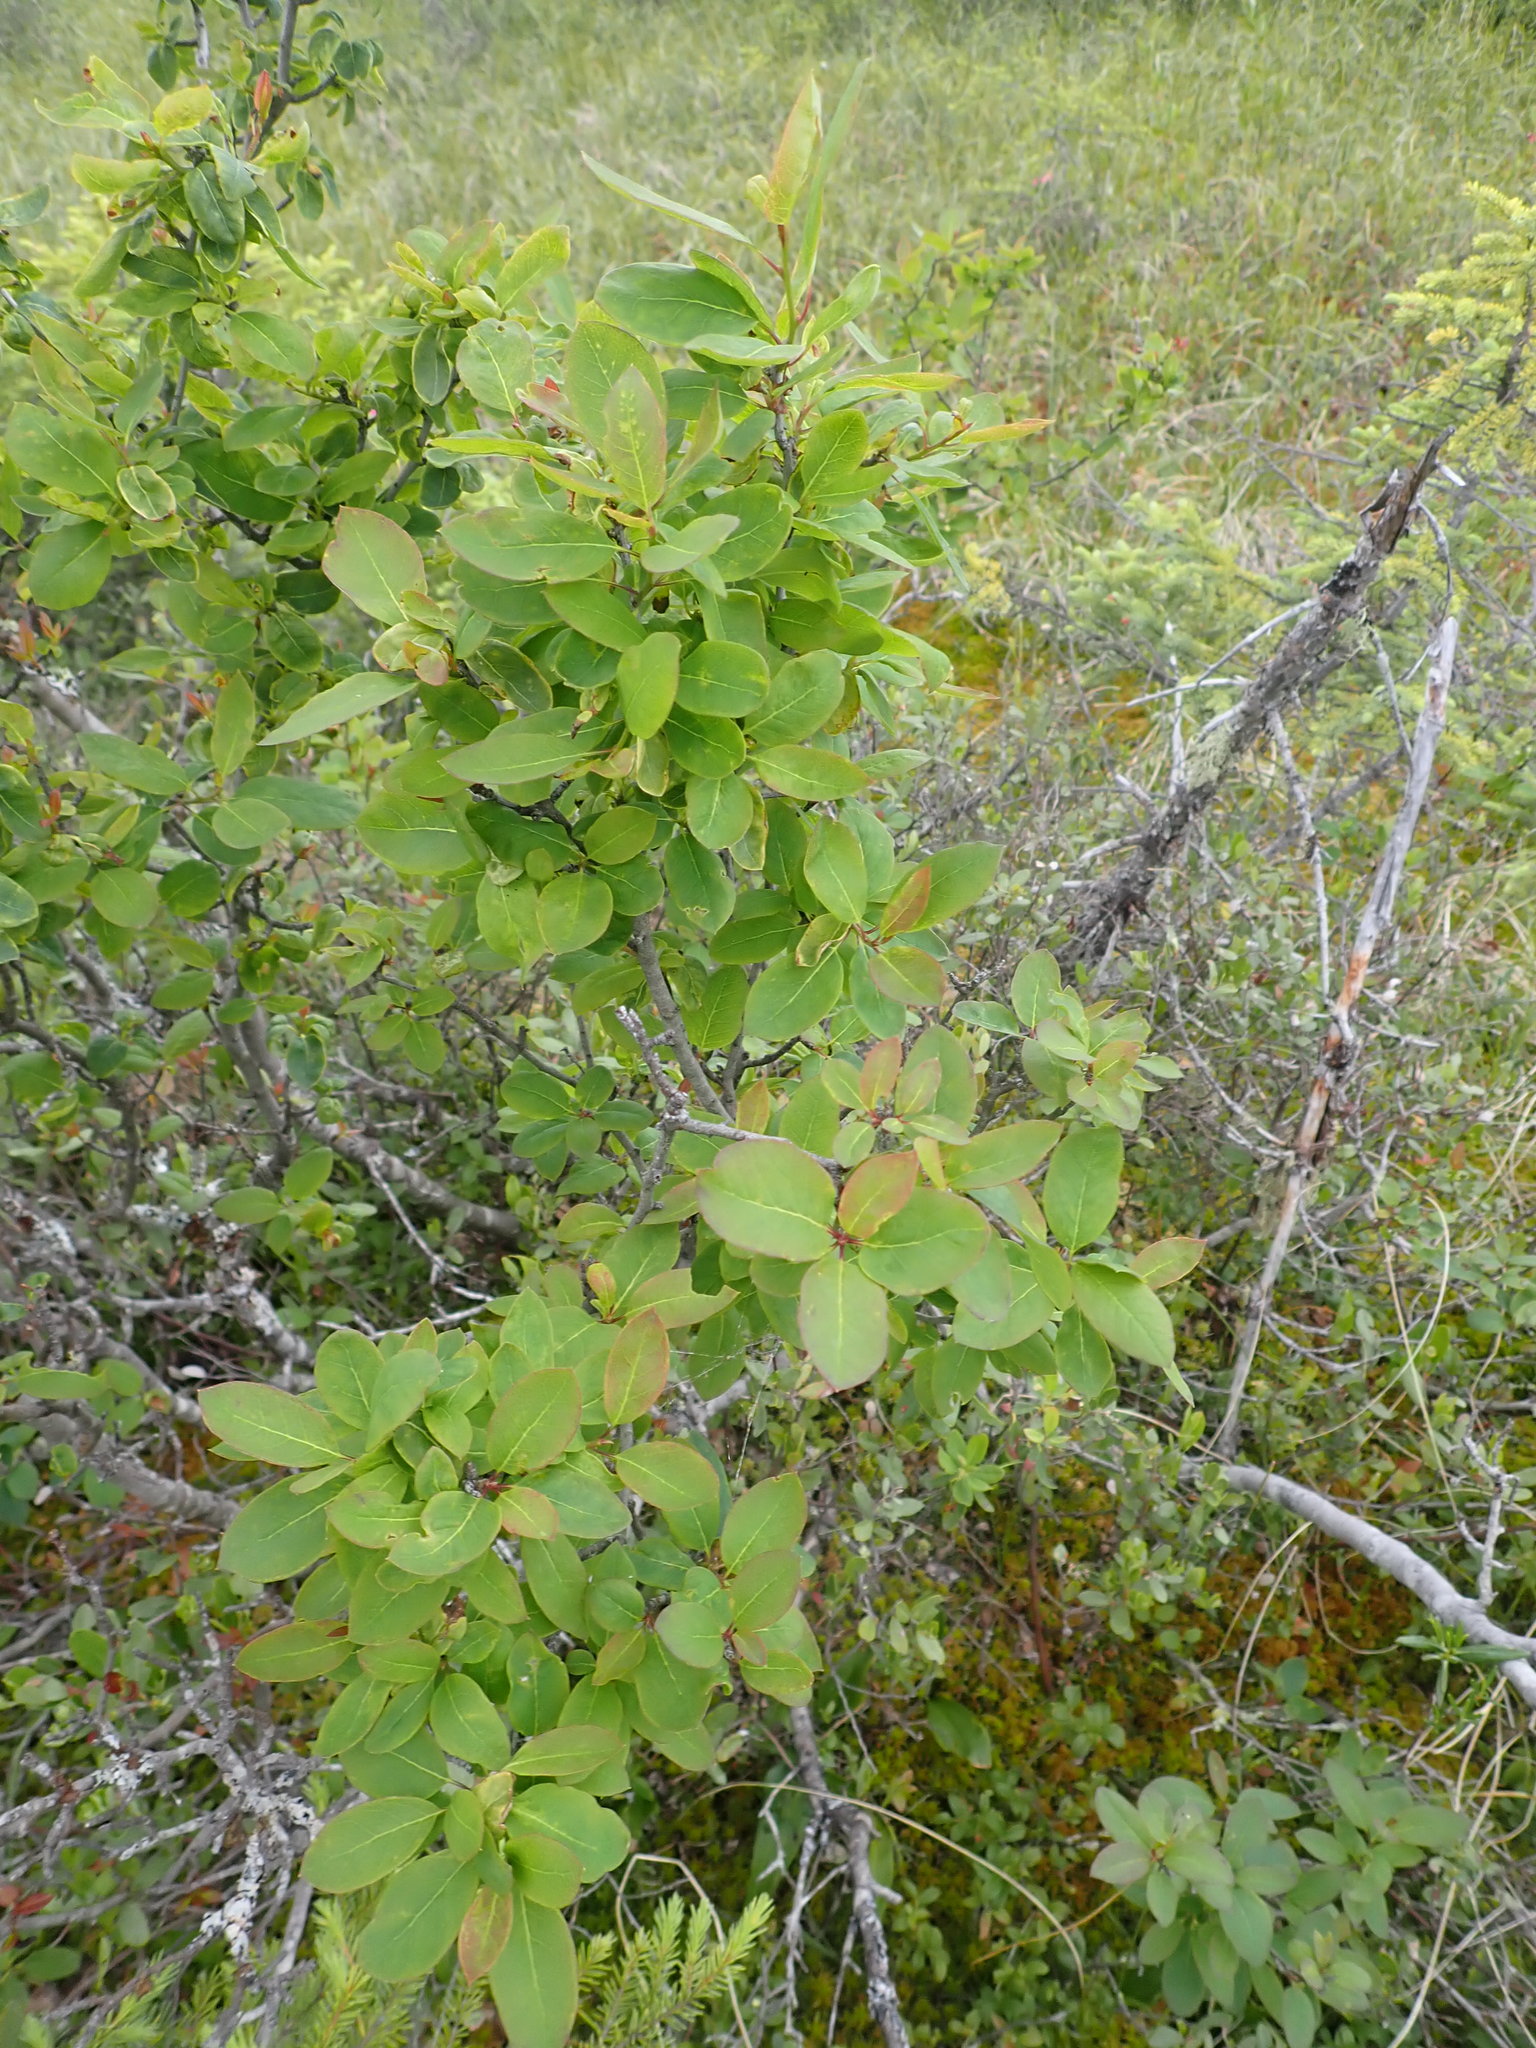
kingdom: Plantae
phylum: Tracheophyta
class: Magnoliopsida
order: Aquifoliales
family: Aquifoliaceae
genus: Ilex
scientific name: Ilex mucronata
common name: Catberry
